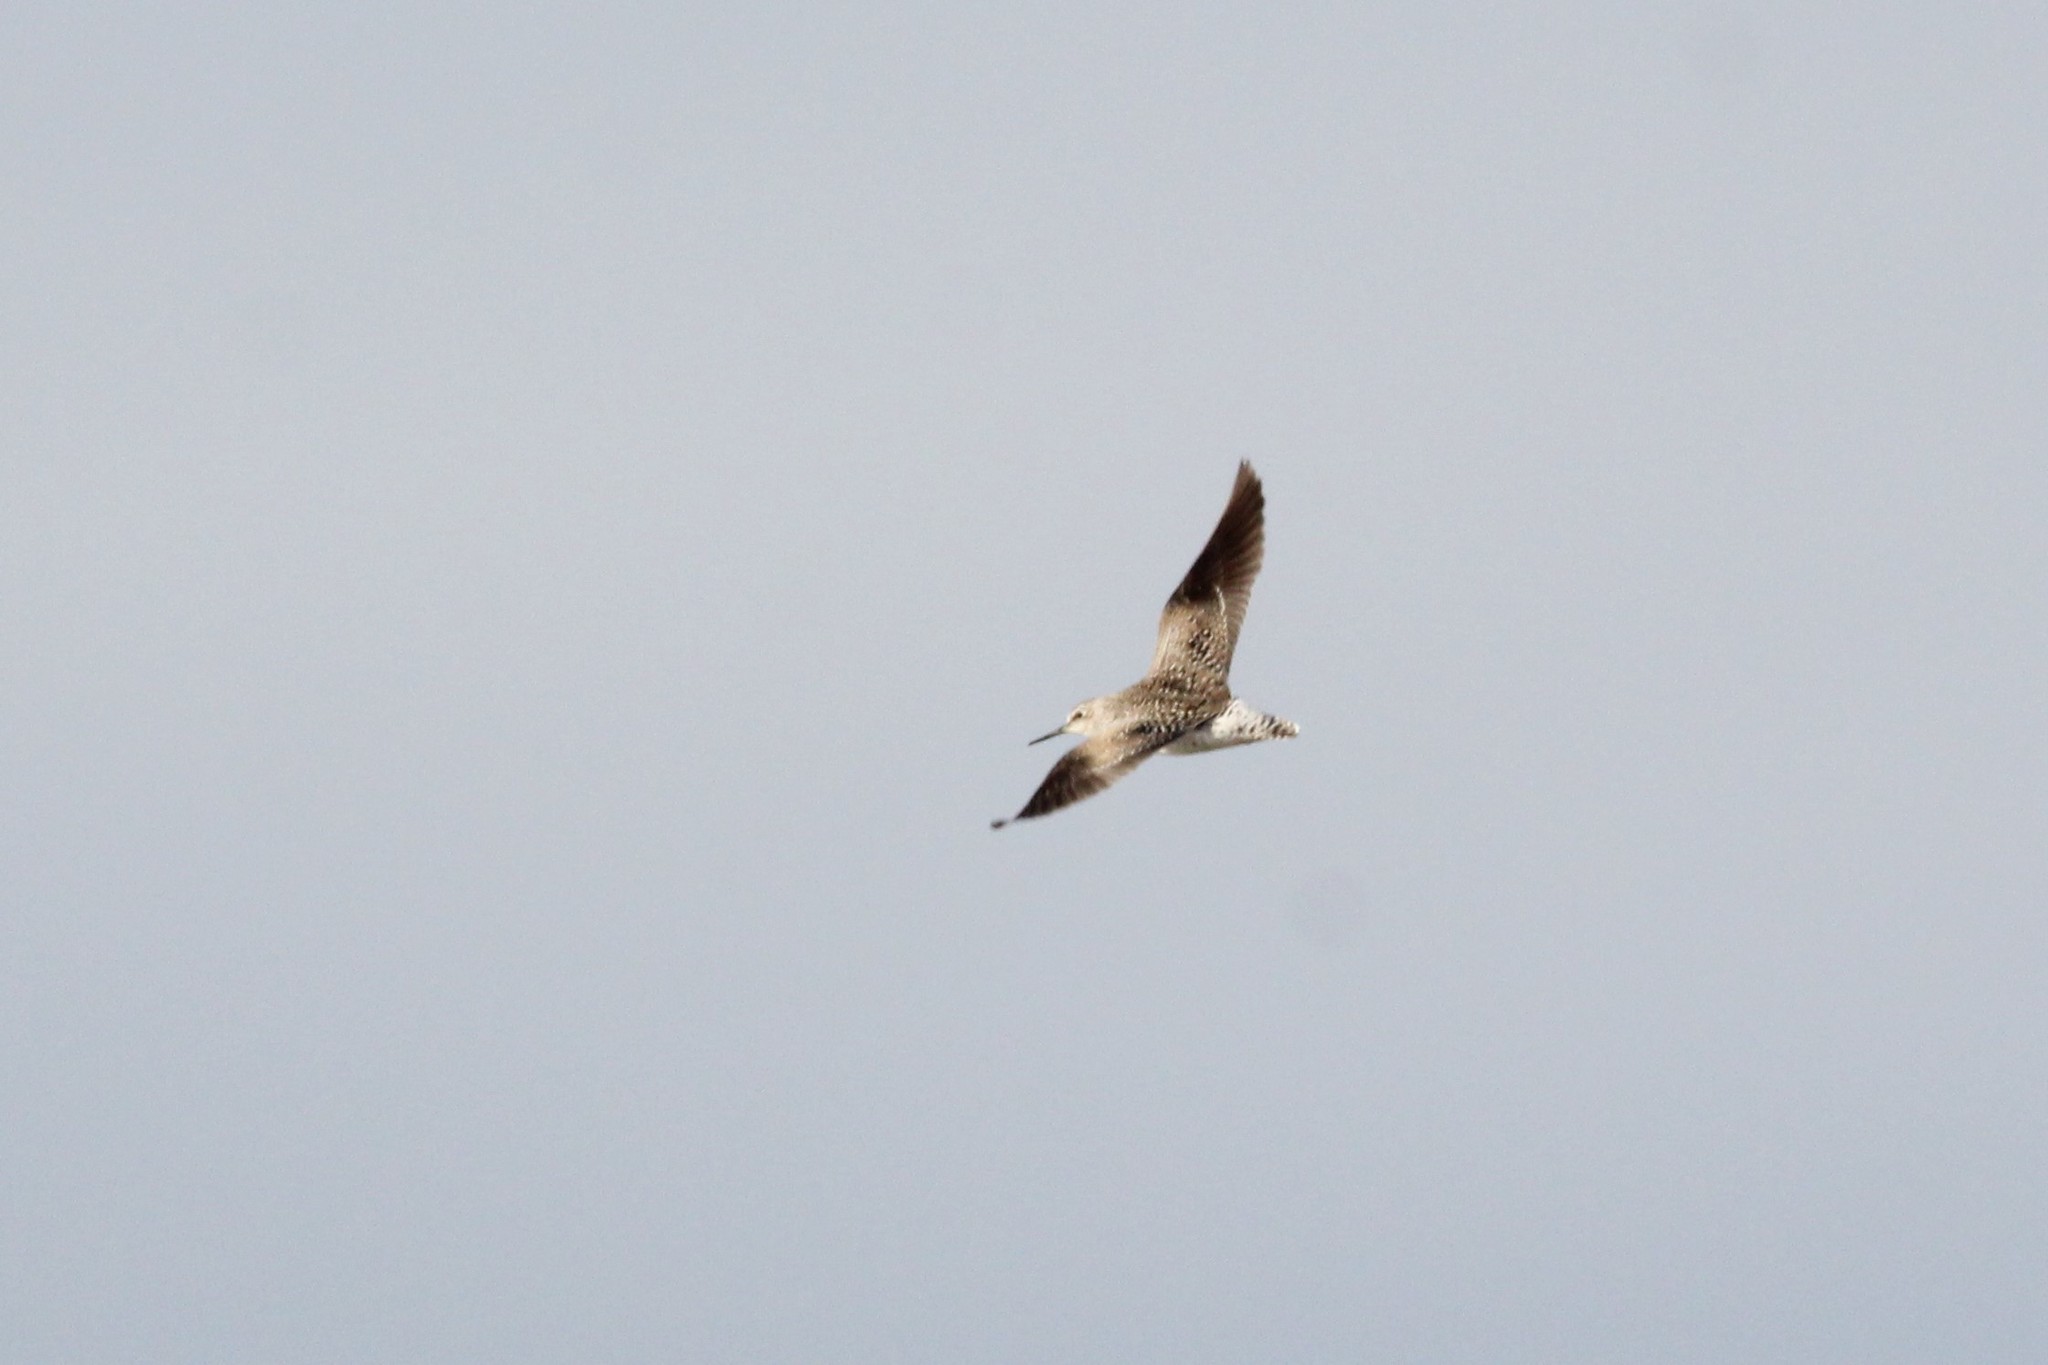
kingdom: Animalia
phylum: Chordata
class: Aves
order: Charadriiformes
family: Scolopacidae
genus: Tringa
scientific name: Tringa flavipes
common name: Lesser yellowlegs
